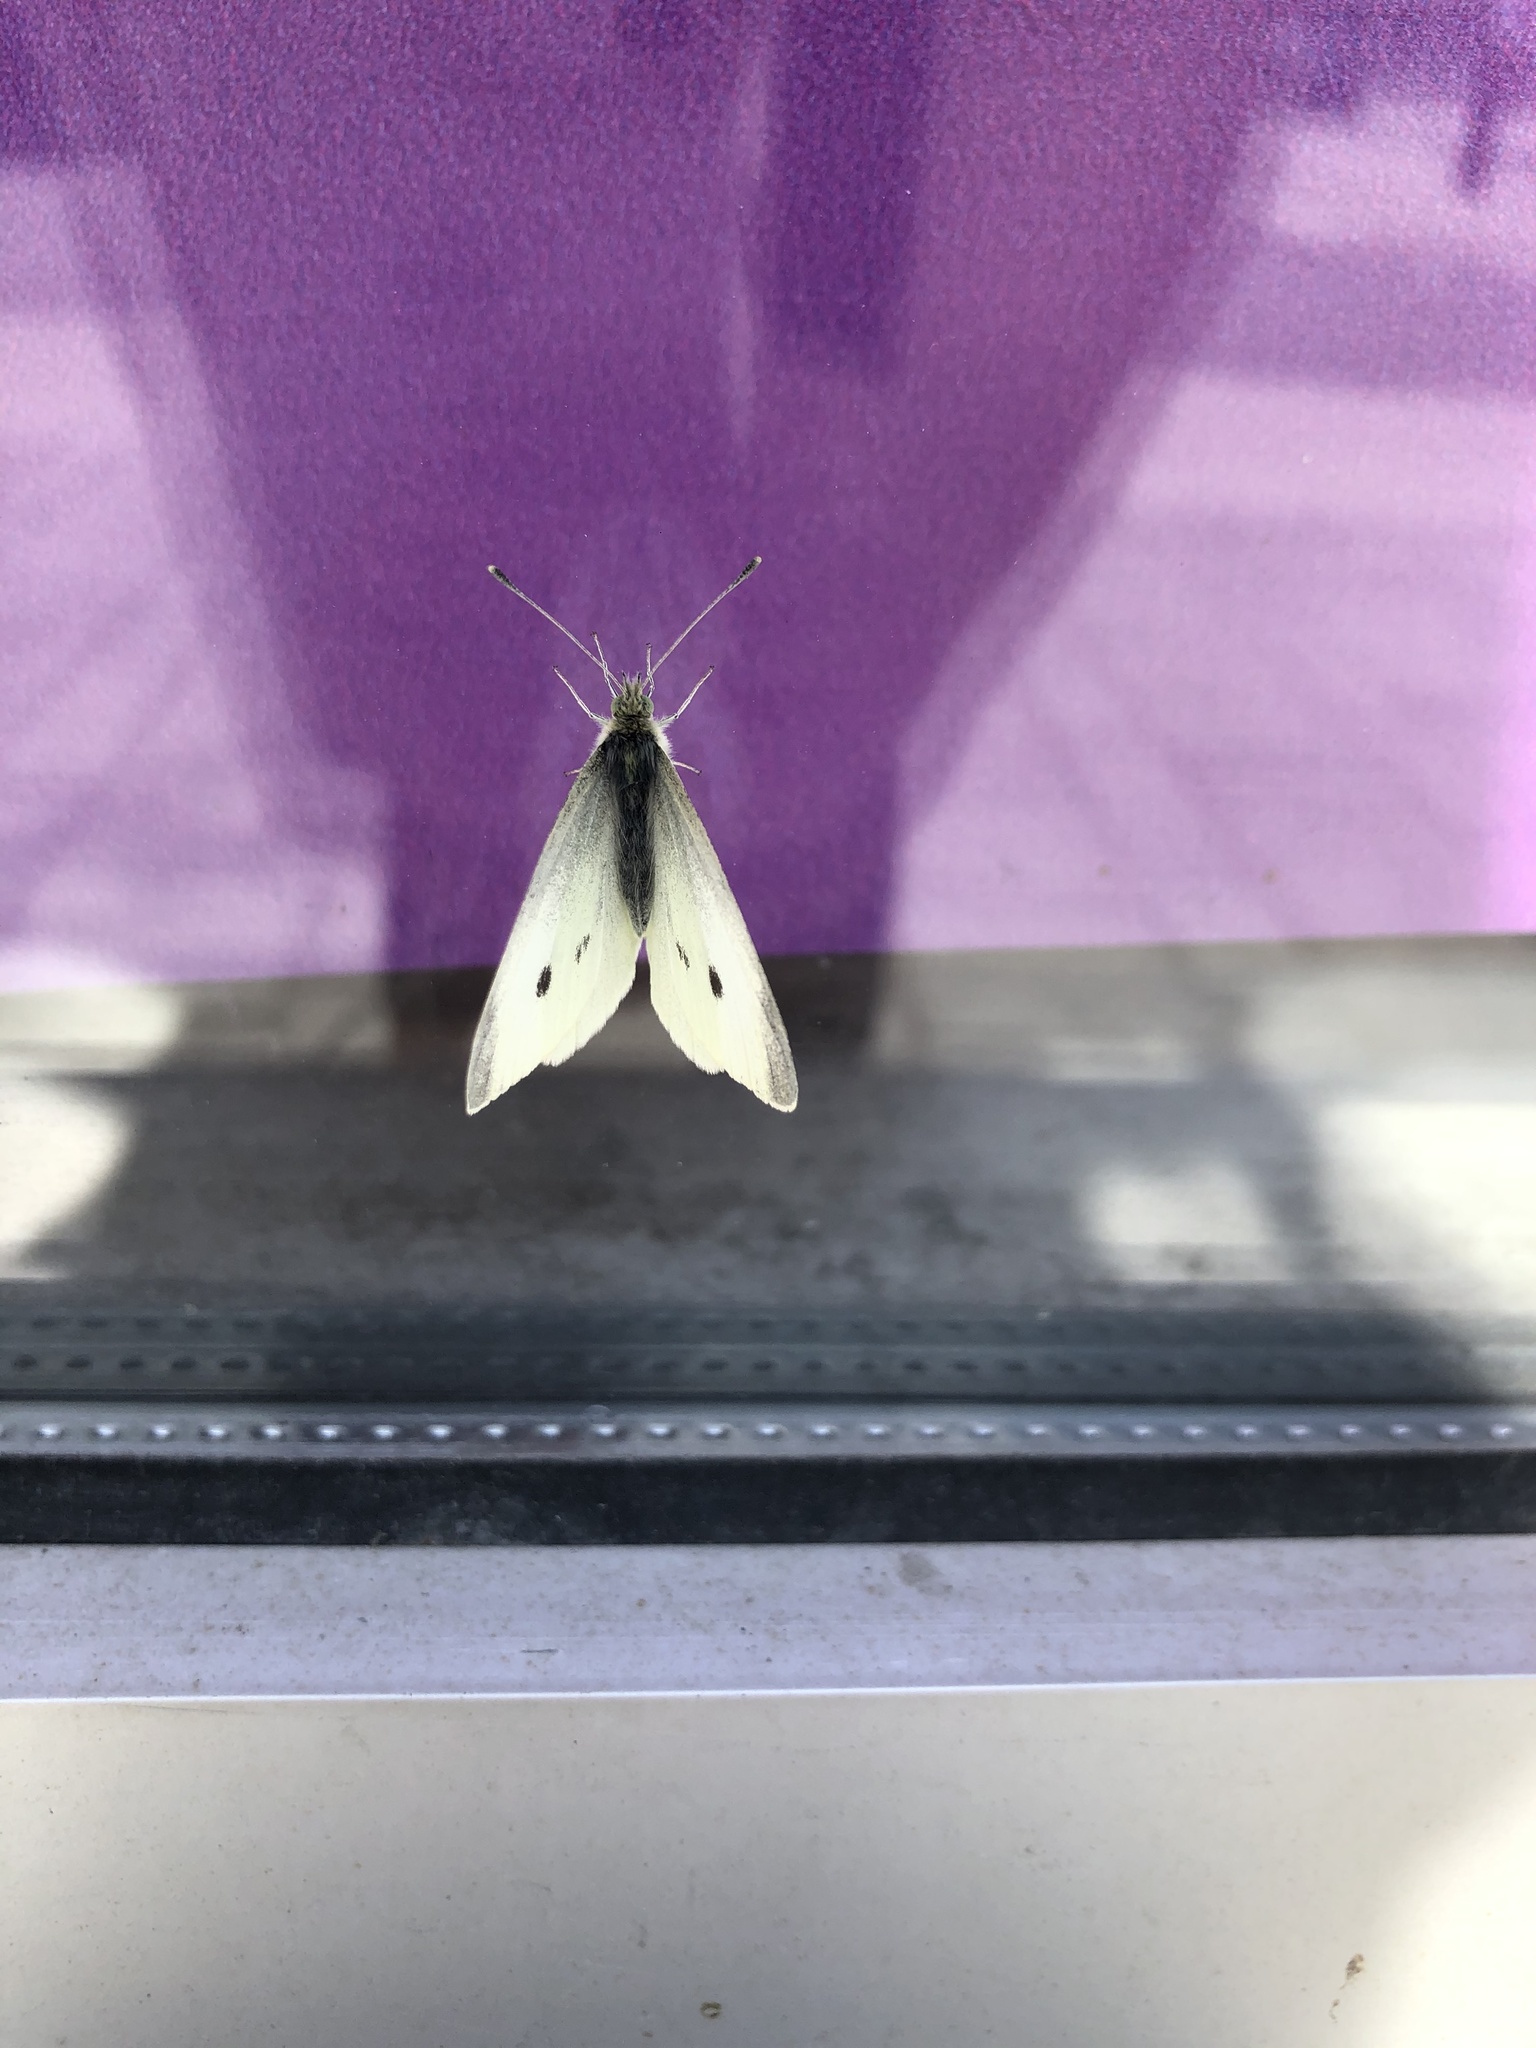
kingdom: Animalia
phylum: Arthropoda
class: Insecta
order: Lepidoptera
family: Pieridae
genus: Pieris
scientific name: Pieris rapae
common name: Small white
